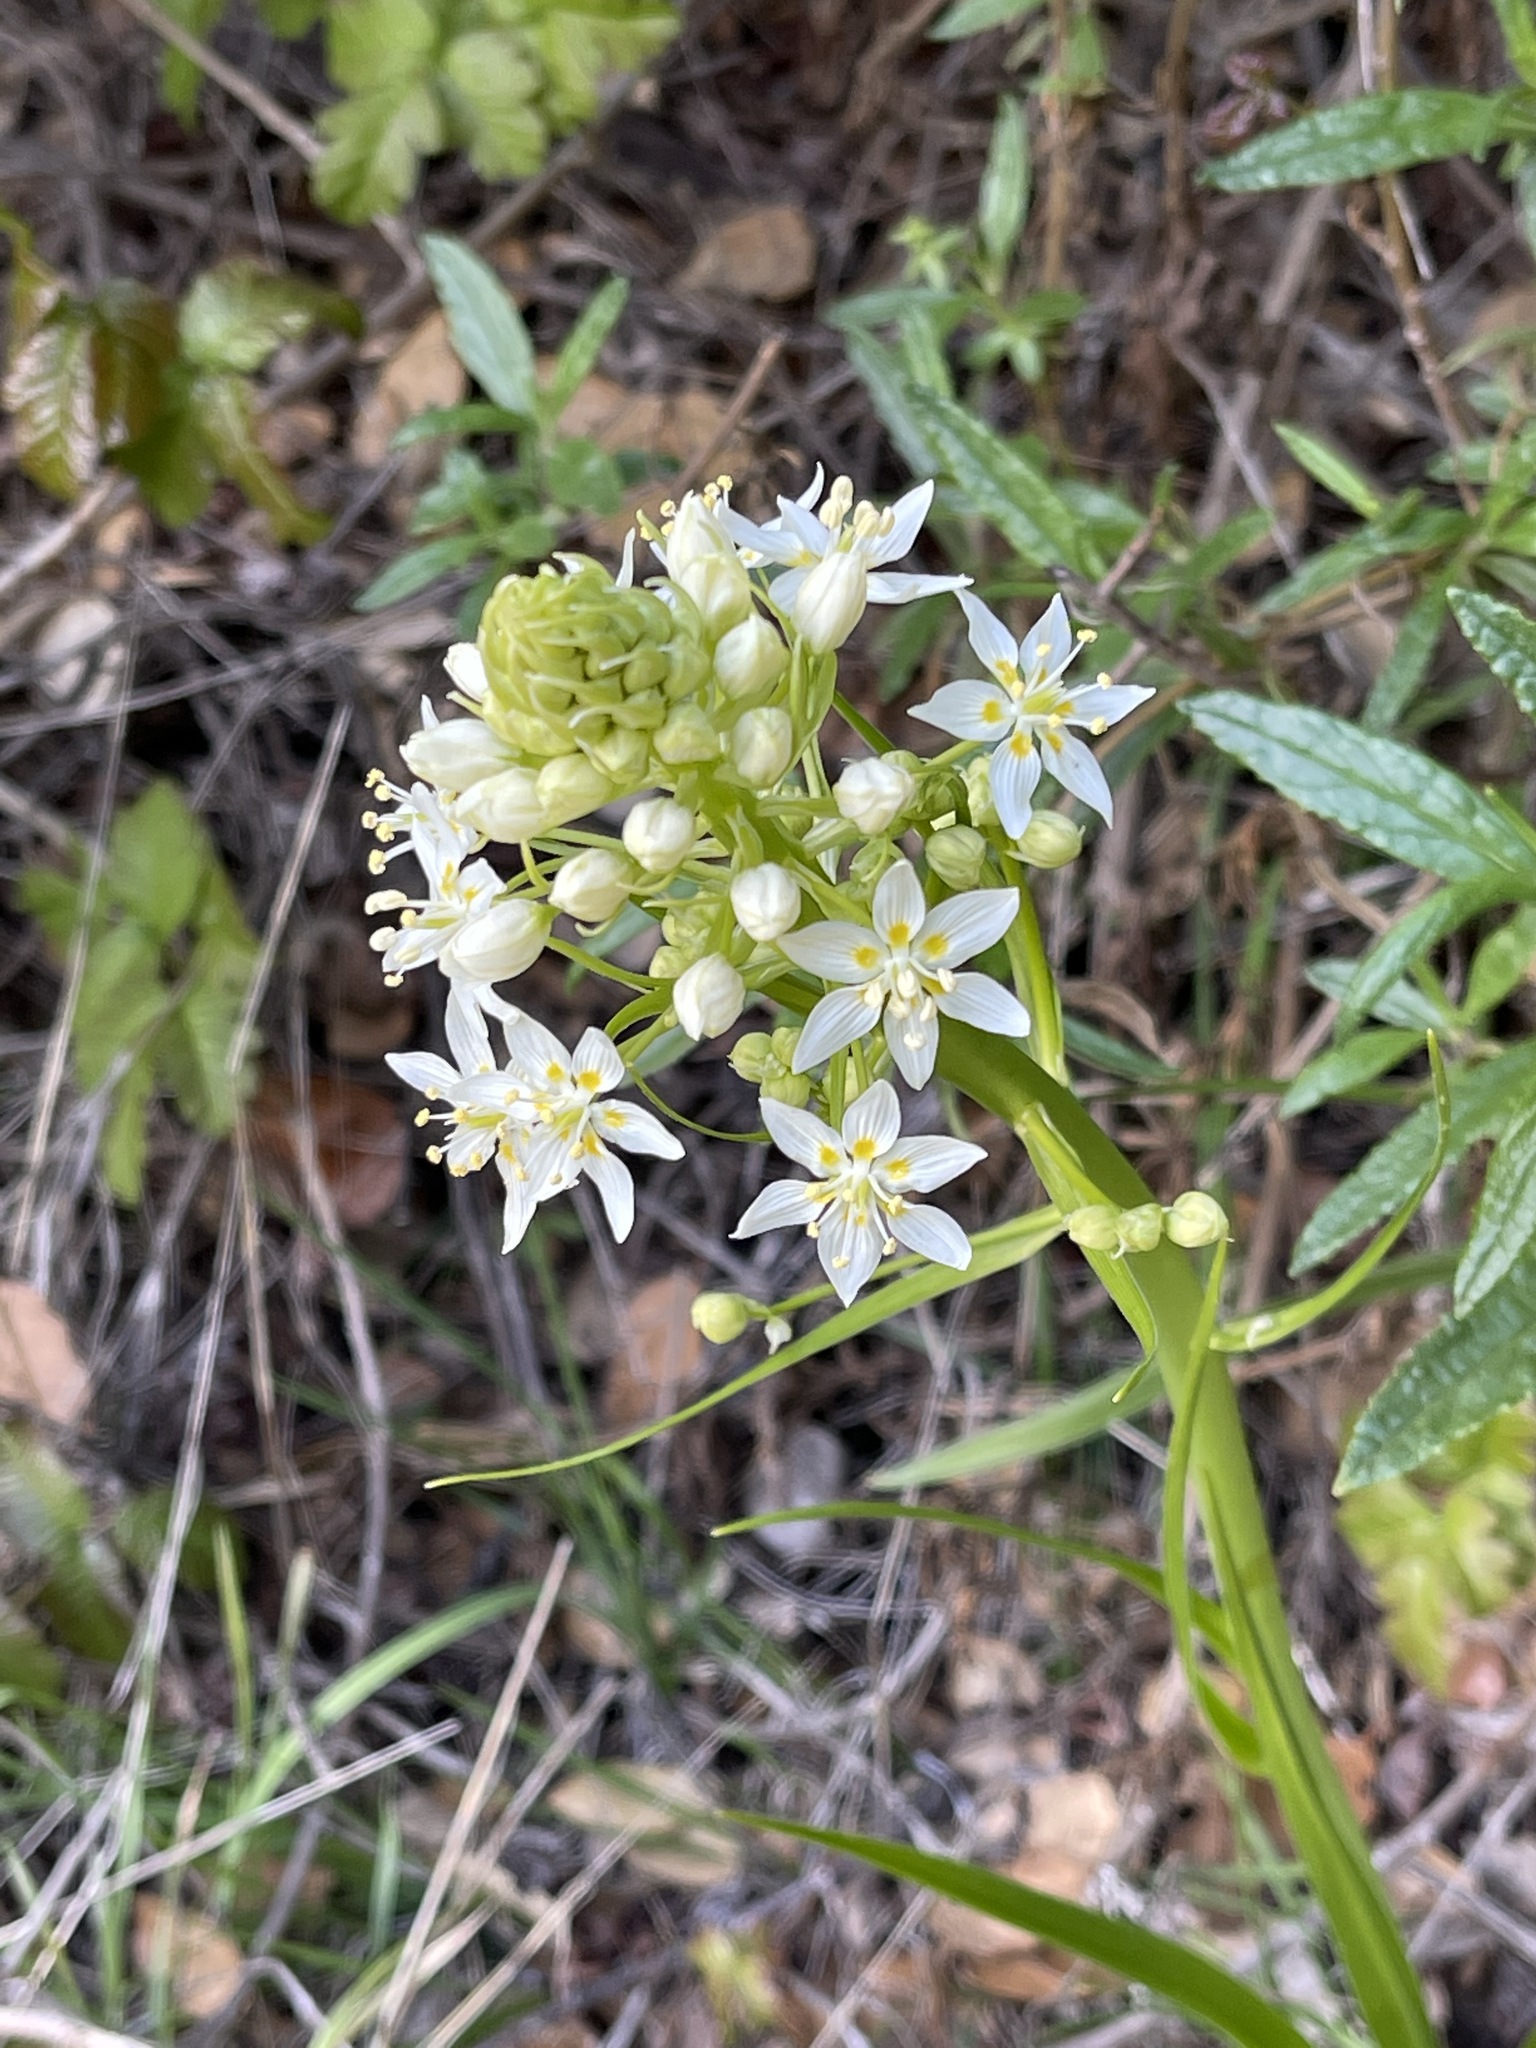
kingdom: Plantae
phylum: Tracheophyta
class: Liliopsida
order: Liliales
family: Melanthiaceae
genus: Toxicoscordion
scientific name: Toxicoscordion fremontii
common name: Fremont's death camas
